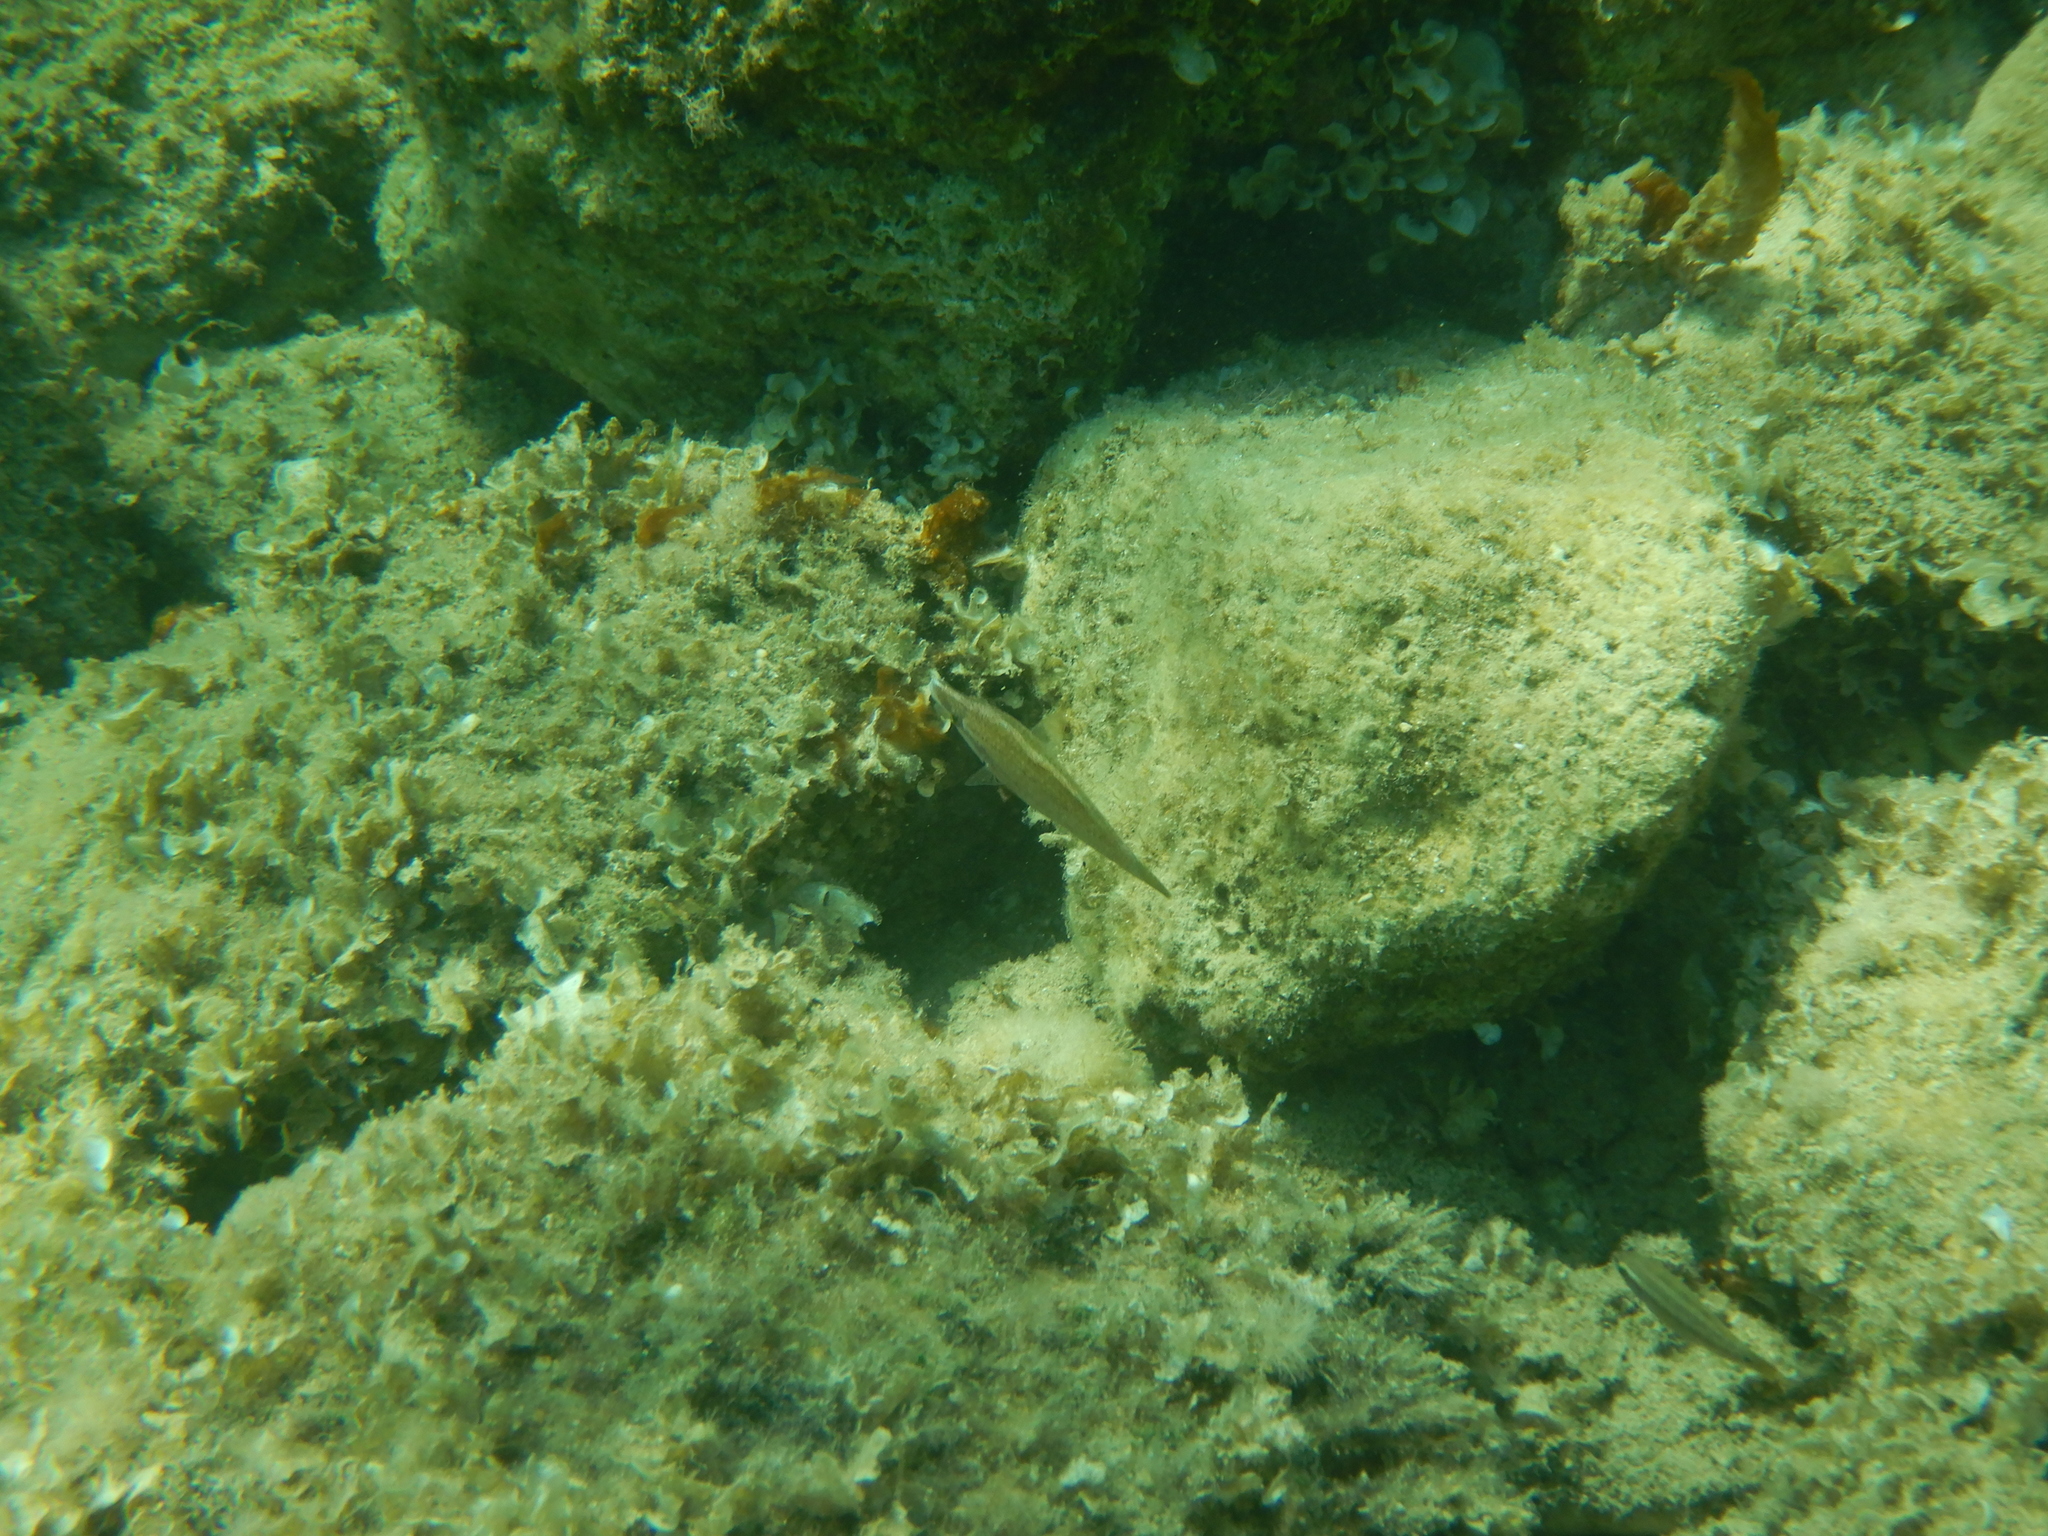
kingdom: Animalia
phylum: Chordata
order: Perciformes
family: Labridae
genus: Symphodus
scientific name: Symphodus rostratus
